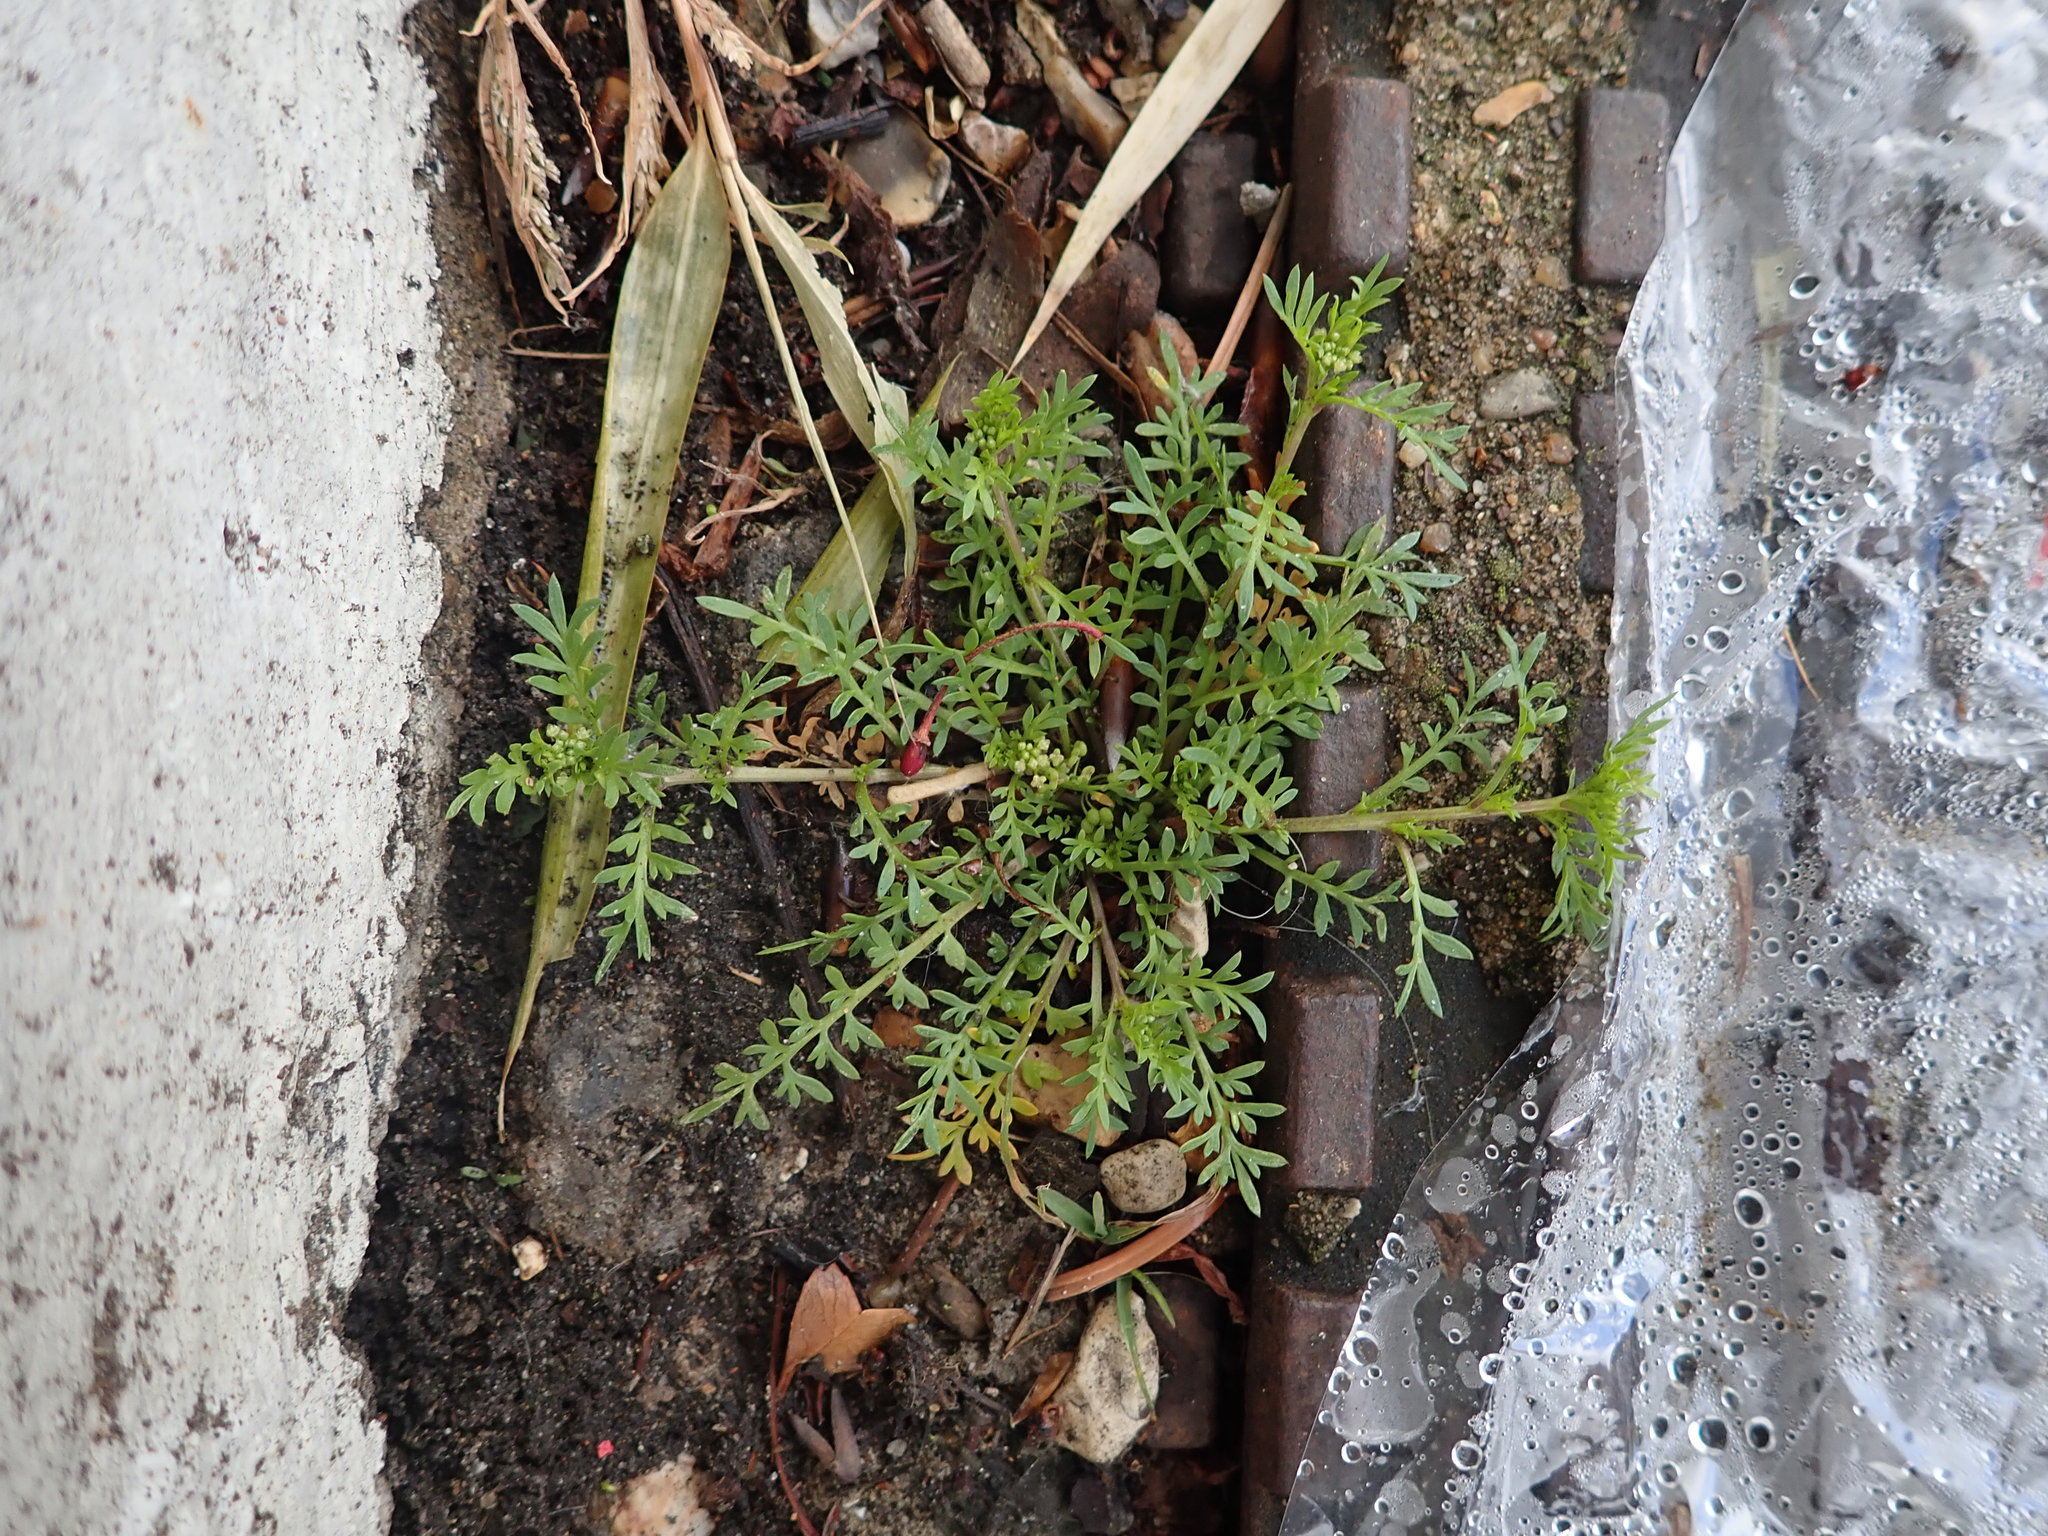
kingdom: Plantae
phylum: Tracheophyta
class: Magnoliopsida
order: Brassicales
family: Brassicaceae
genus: Lepidium
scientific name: Lepidium didymum
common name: Lesser swinecress
